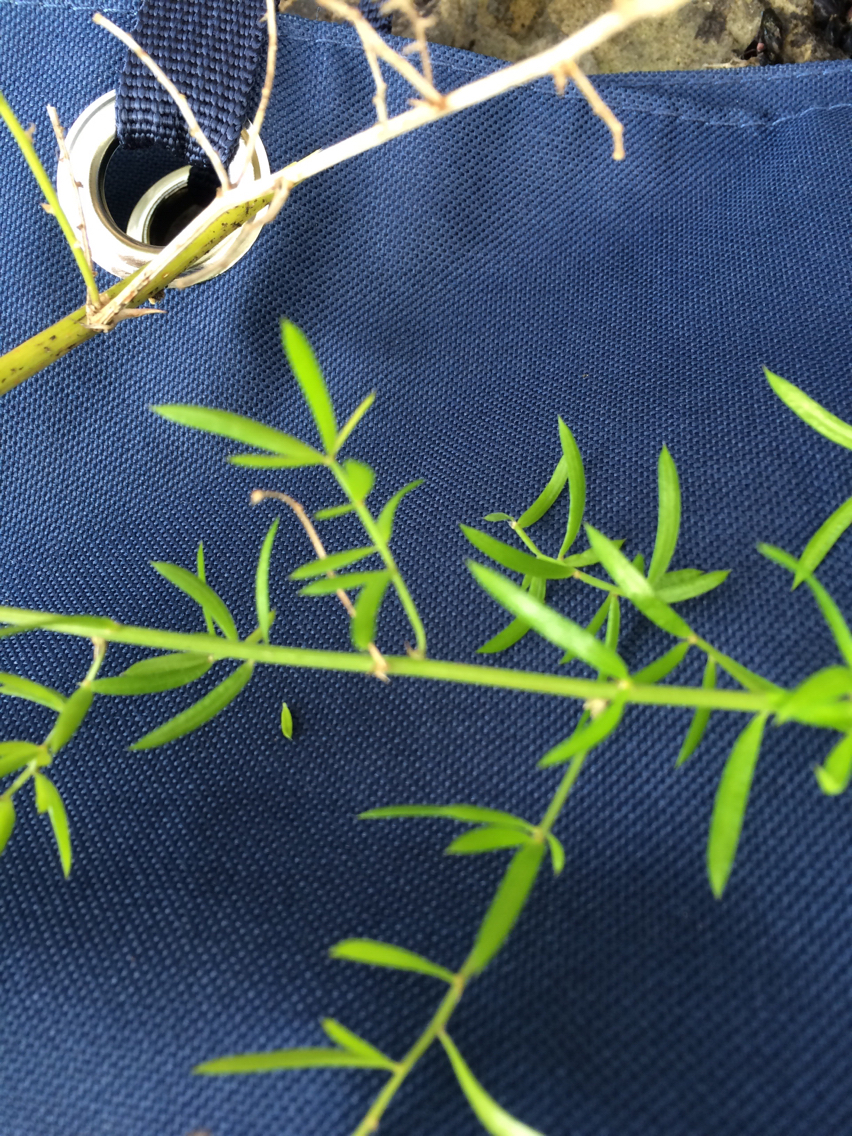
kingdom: Plantae
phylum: Tracheophyta
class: Liliopsida
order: Asparagales
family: Asparagaceae
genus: Asparagus
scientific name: Asparagus aethiopicus
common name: Sprenger's asparagus fern
